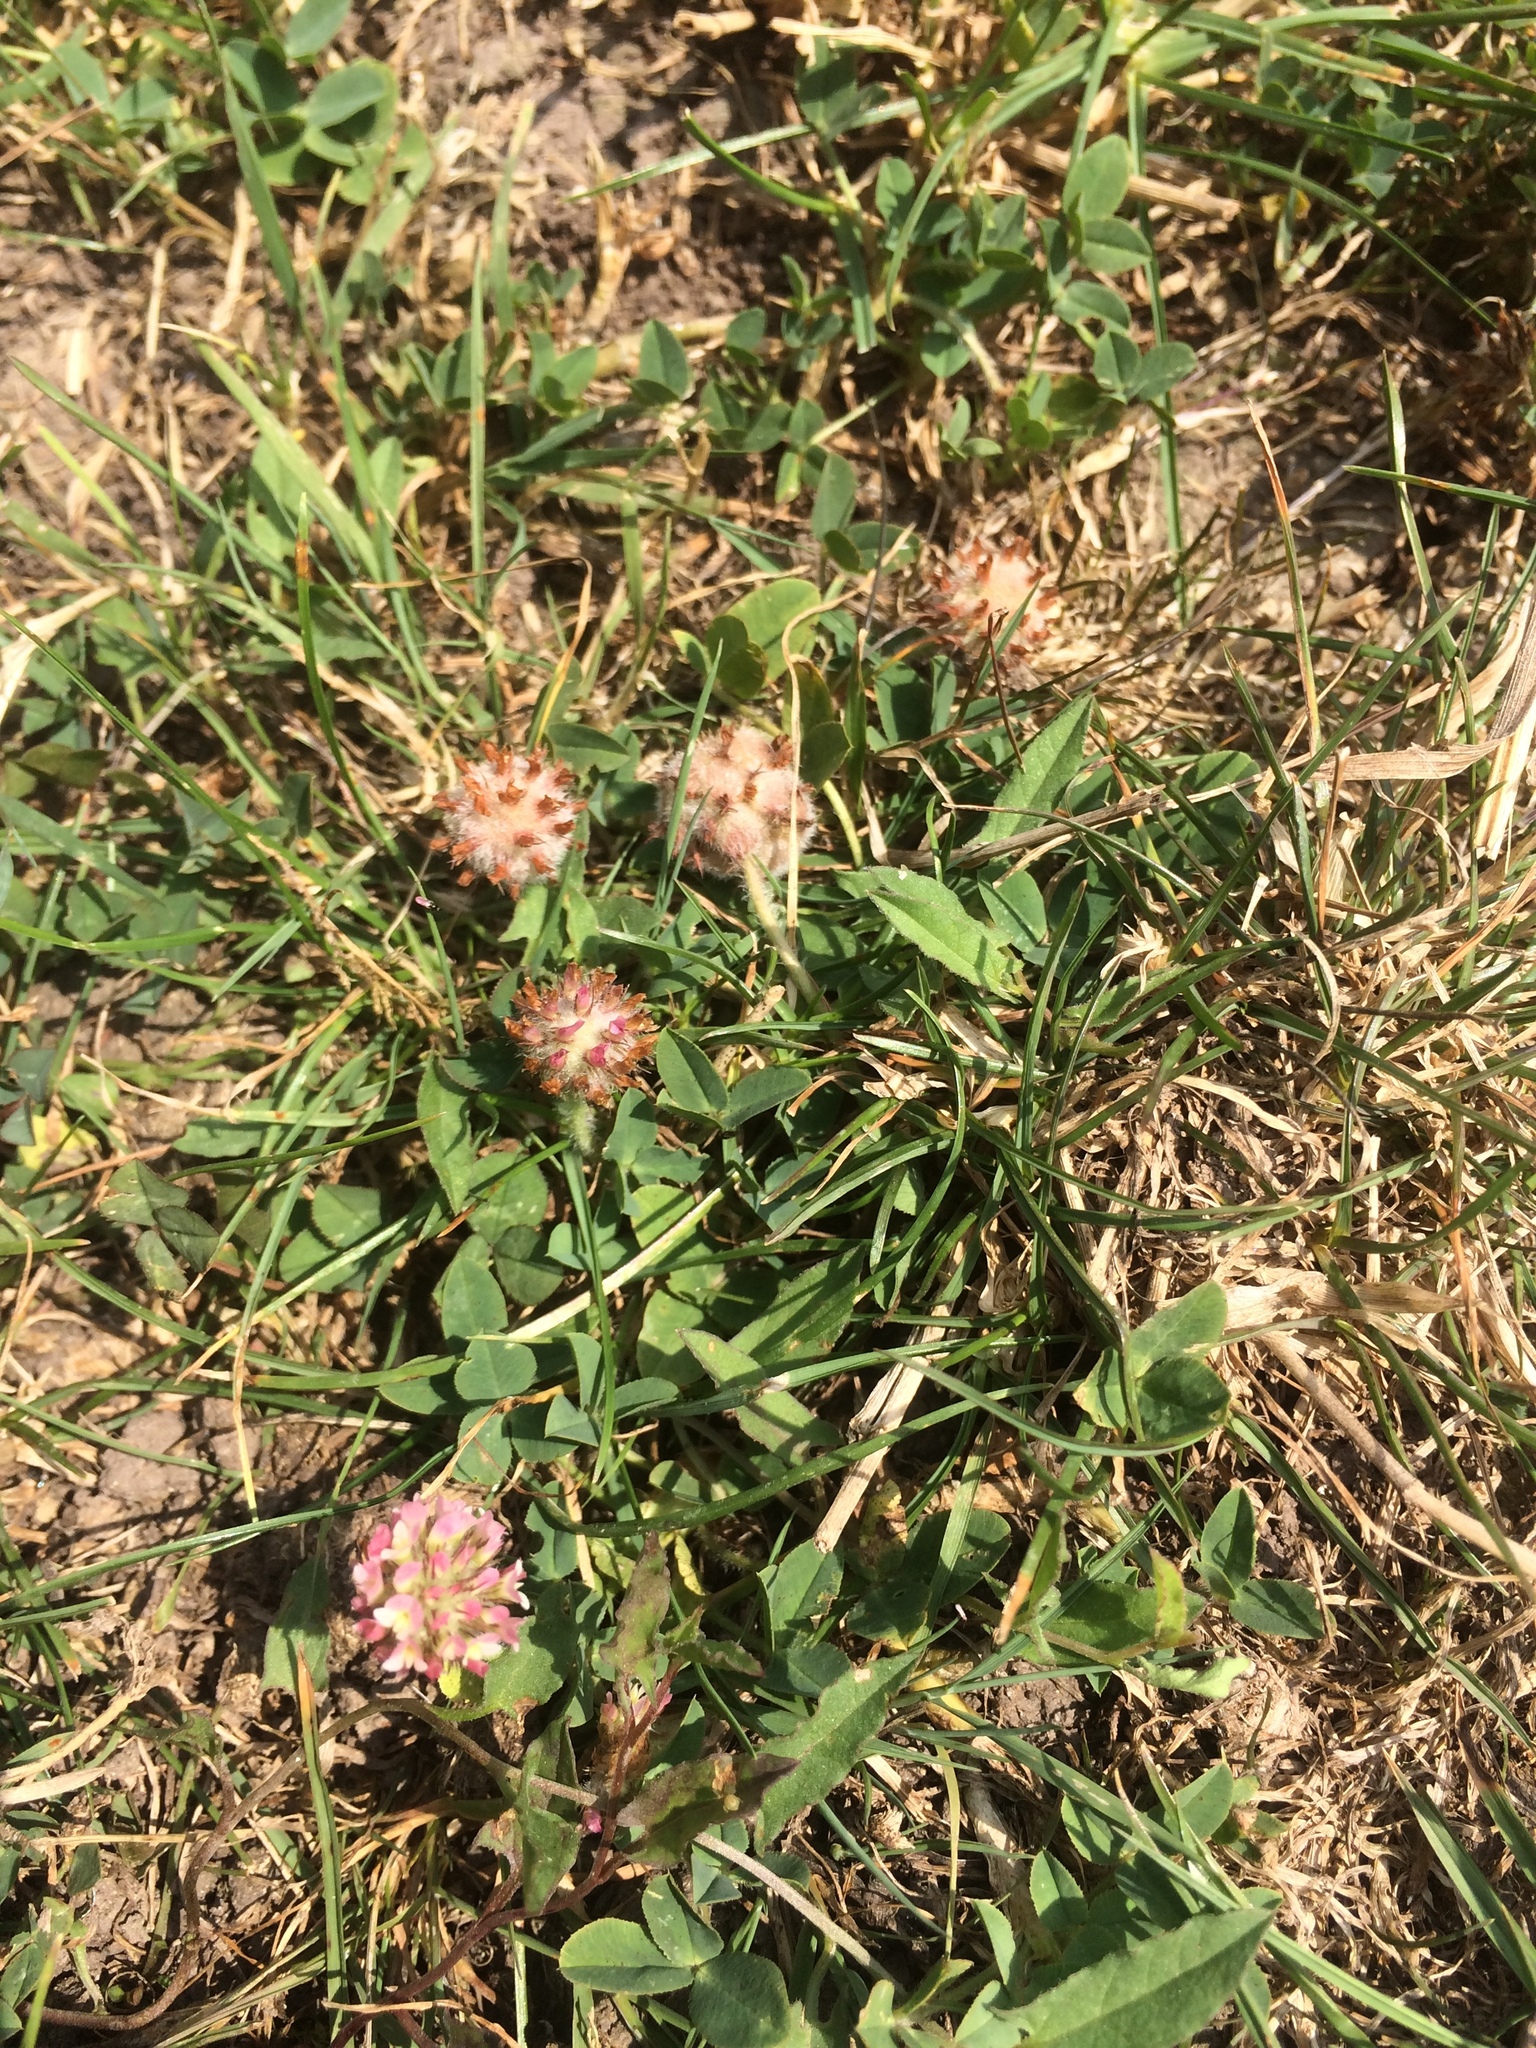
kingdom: Plantae
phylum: Tracheophyta
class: Magnoliopsida
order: Fabales
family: Fabaceae
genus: Trifolium
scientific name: Trifolium fragiferum
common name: Strawberry clover
